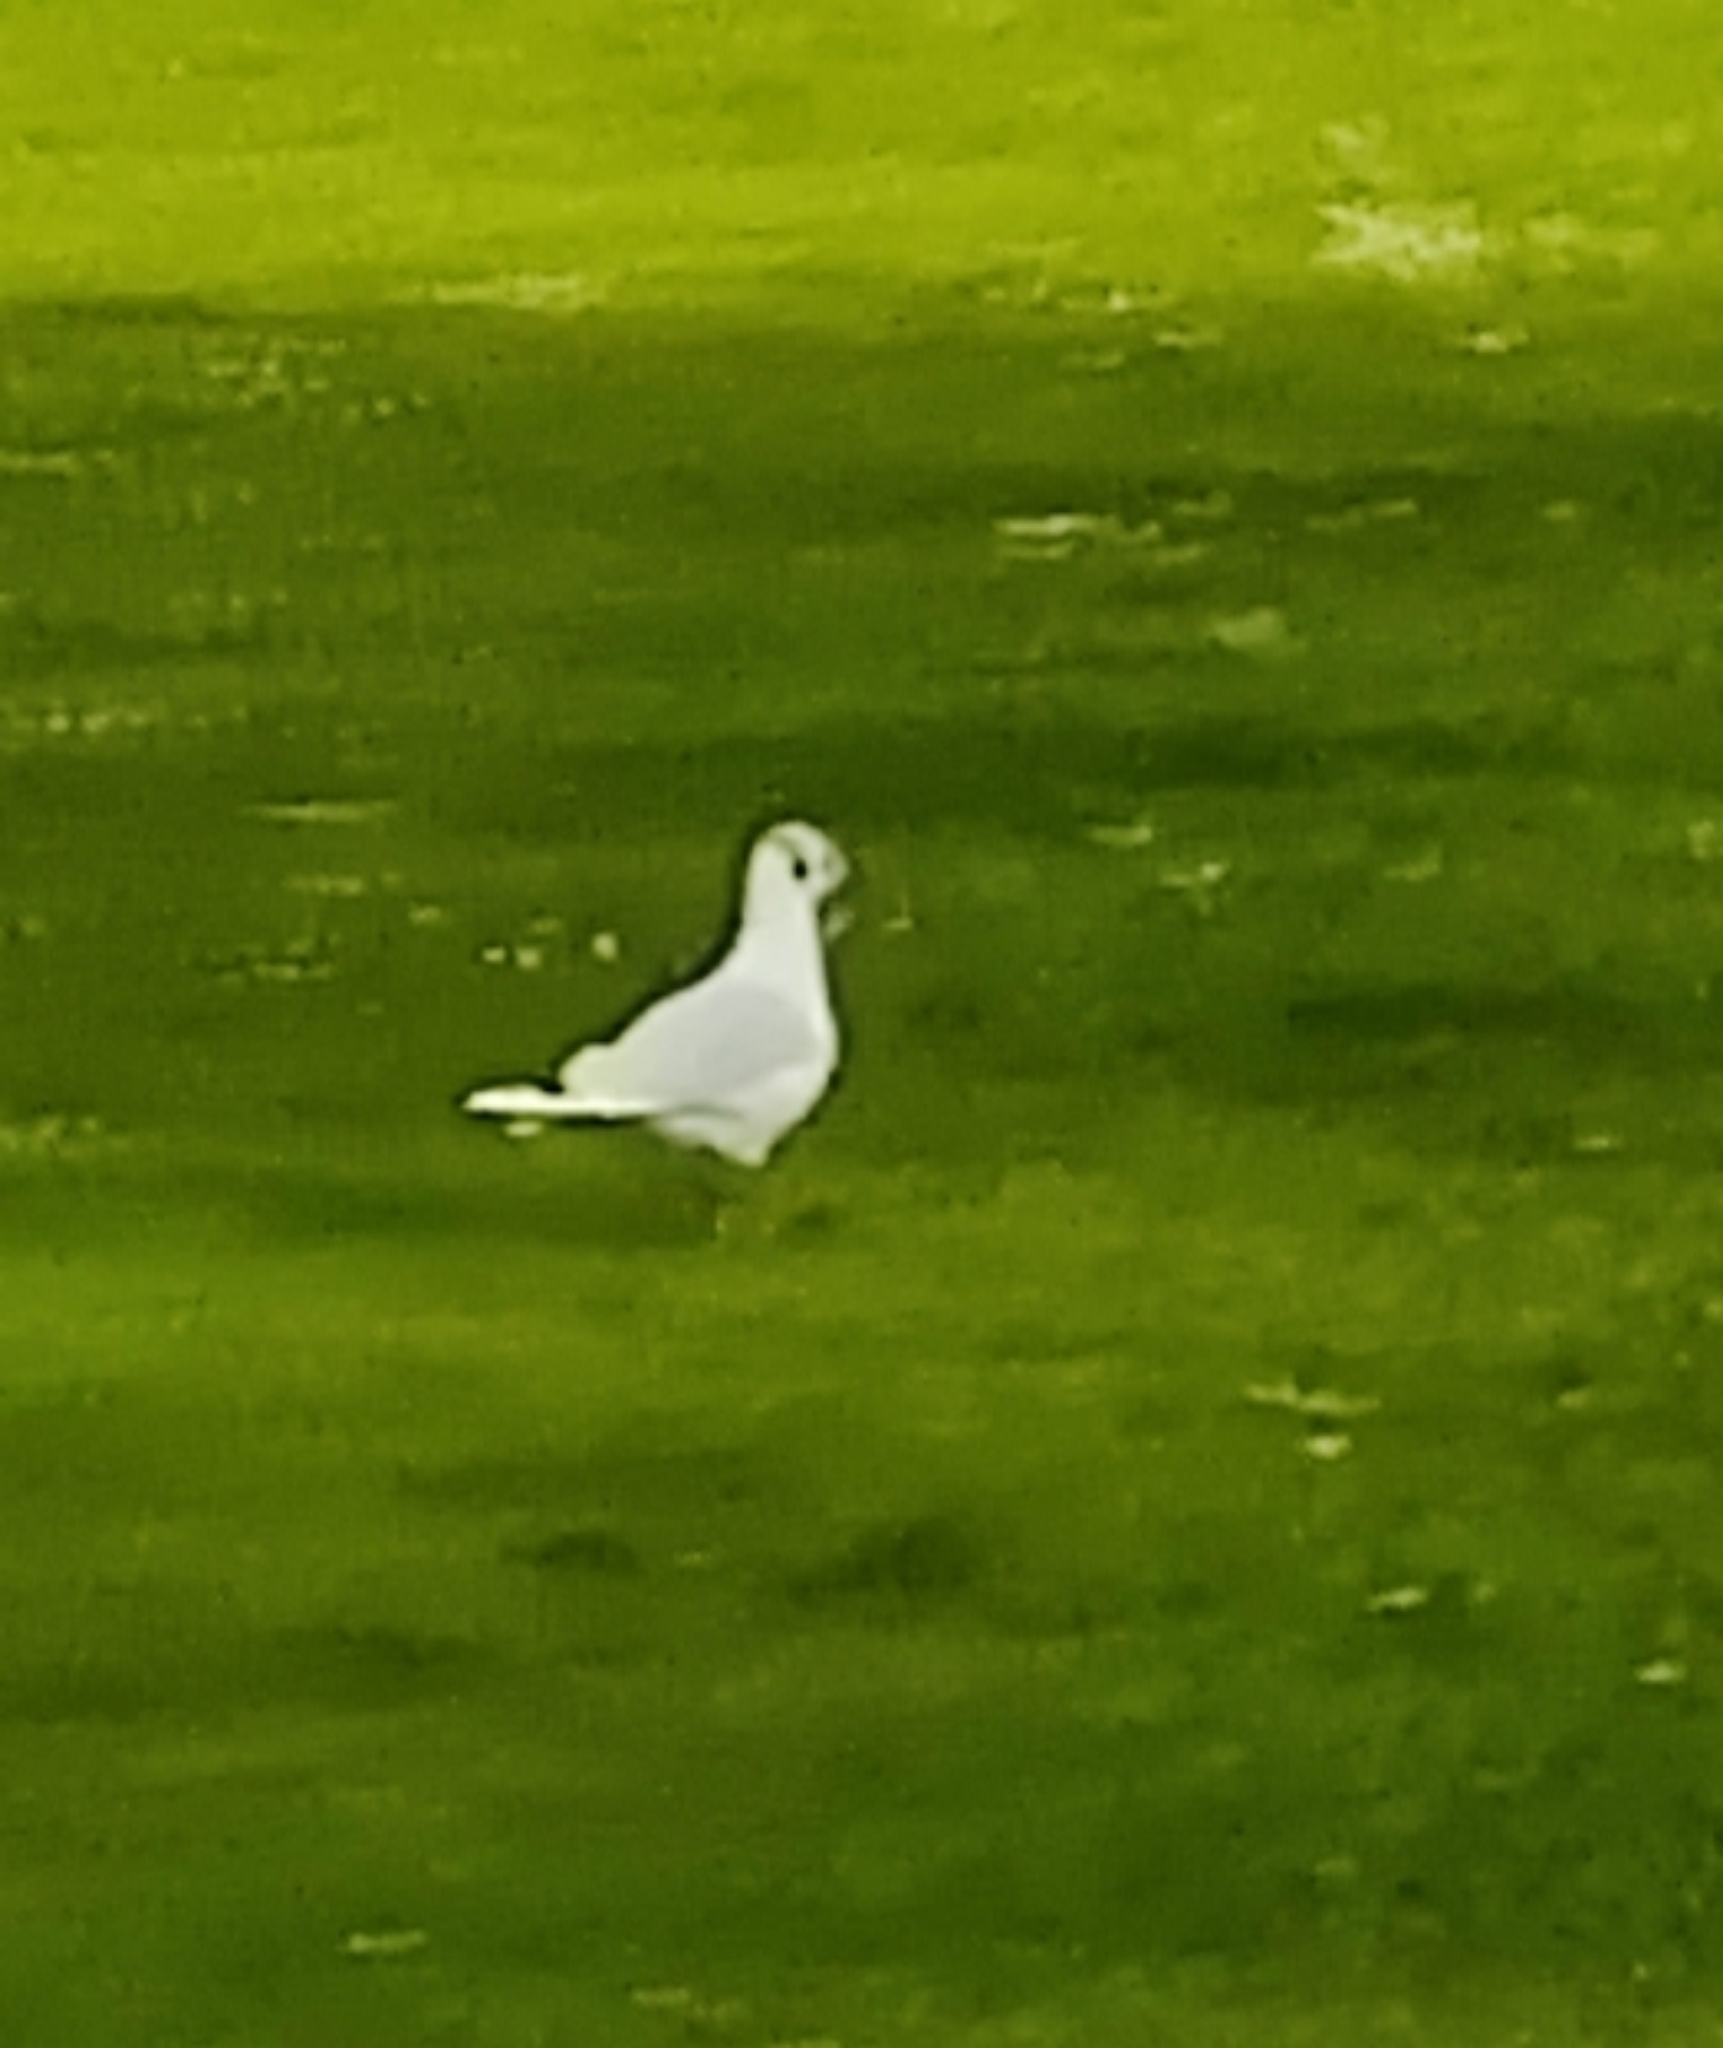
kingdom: Animalia
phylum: Chordata
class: Aves
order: Charadriiformes
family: Laridae
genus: Chroicocephalus
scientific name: Chroicocephalus ridibundus
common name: Black-headed gull
